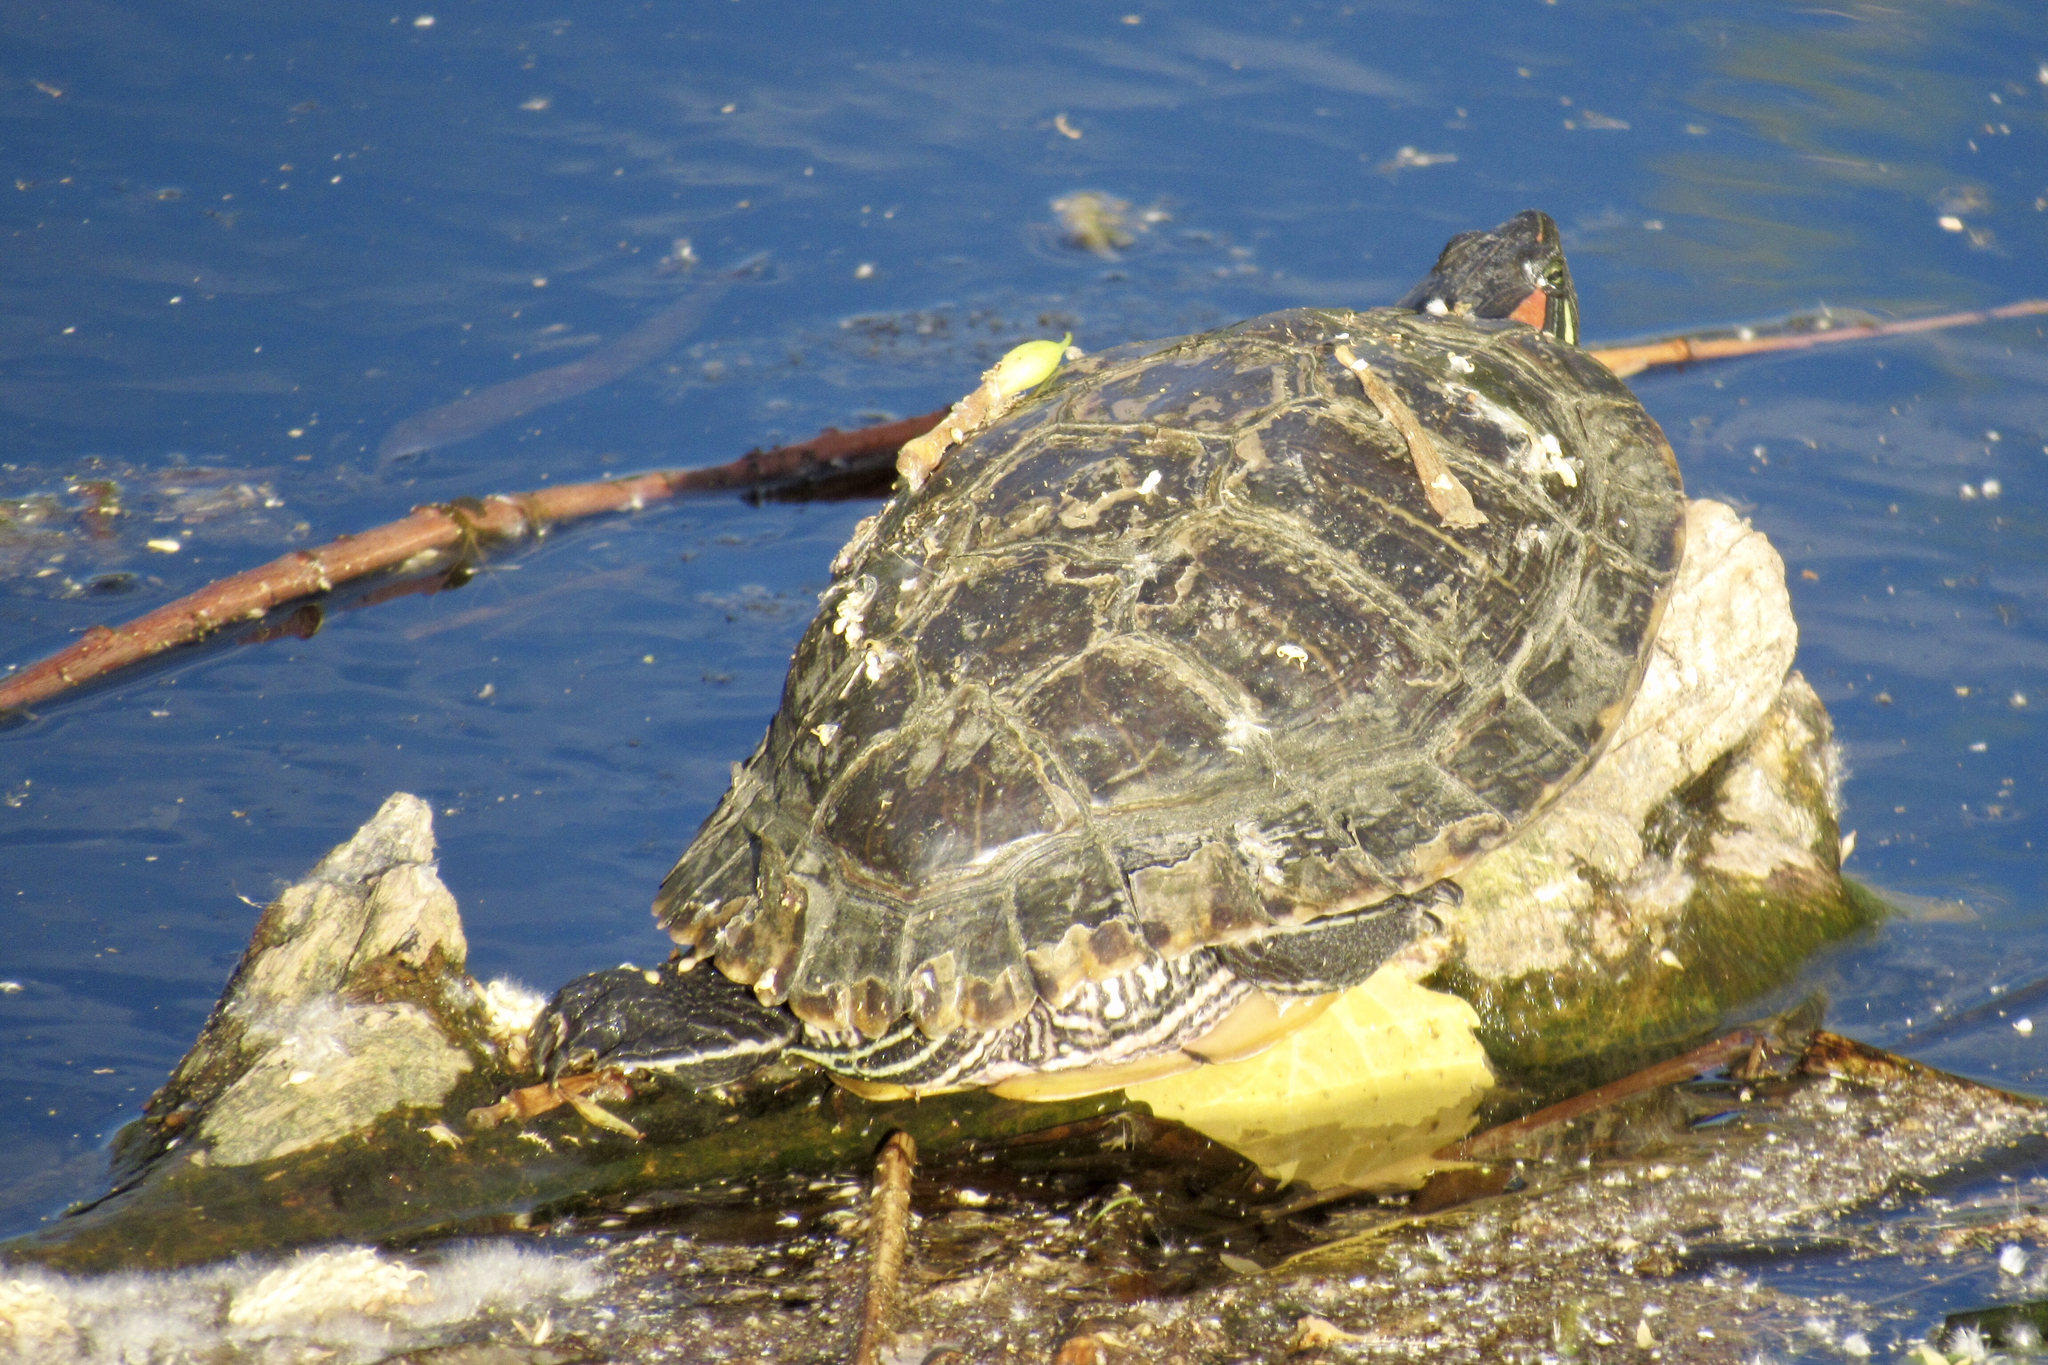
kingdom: Animalia
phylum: Chordata
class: Testudines
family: Emydidae
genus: Trachemys
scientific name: Trachemys scripta
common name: Slider
